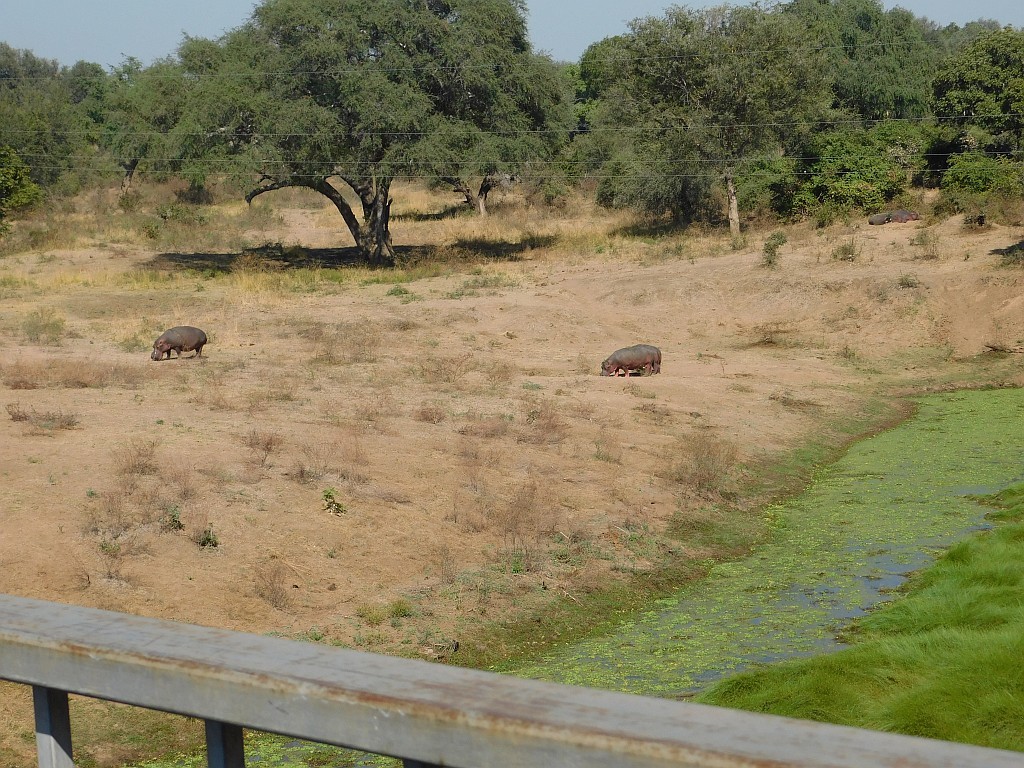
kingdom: Animalia
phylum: Chordata
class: Mammalia
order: Artiodactyla
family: Hippopotamidae
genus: Hippopotamus
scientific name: Hippopotamus amphibius
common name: Common hippopotamus
